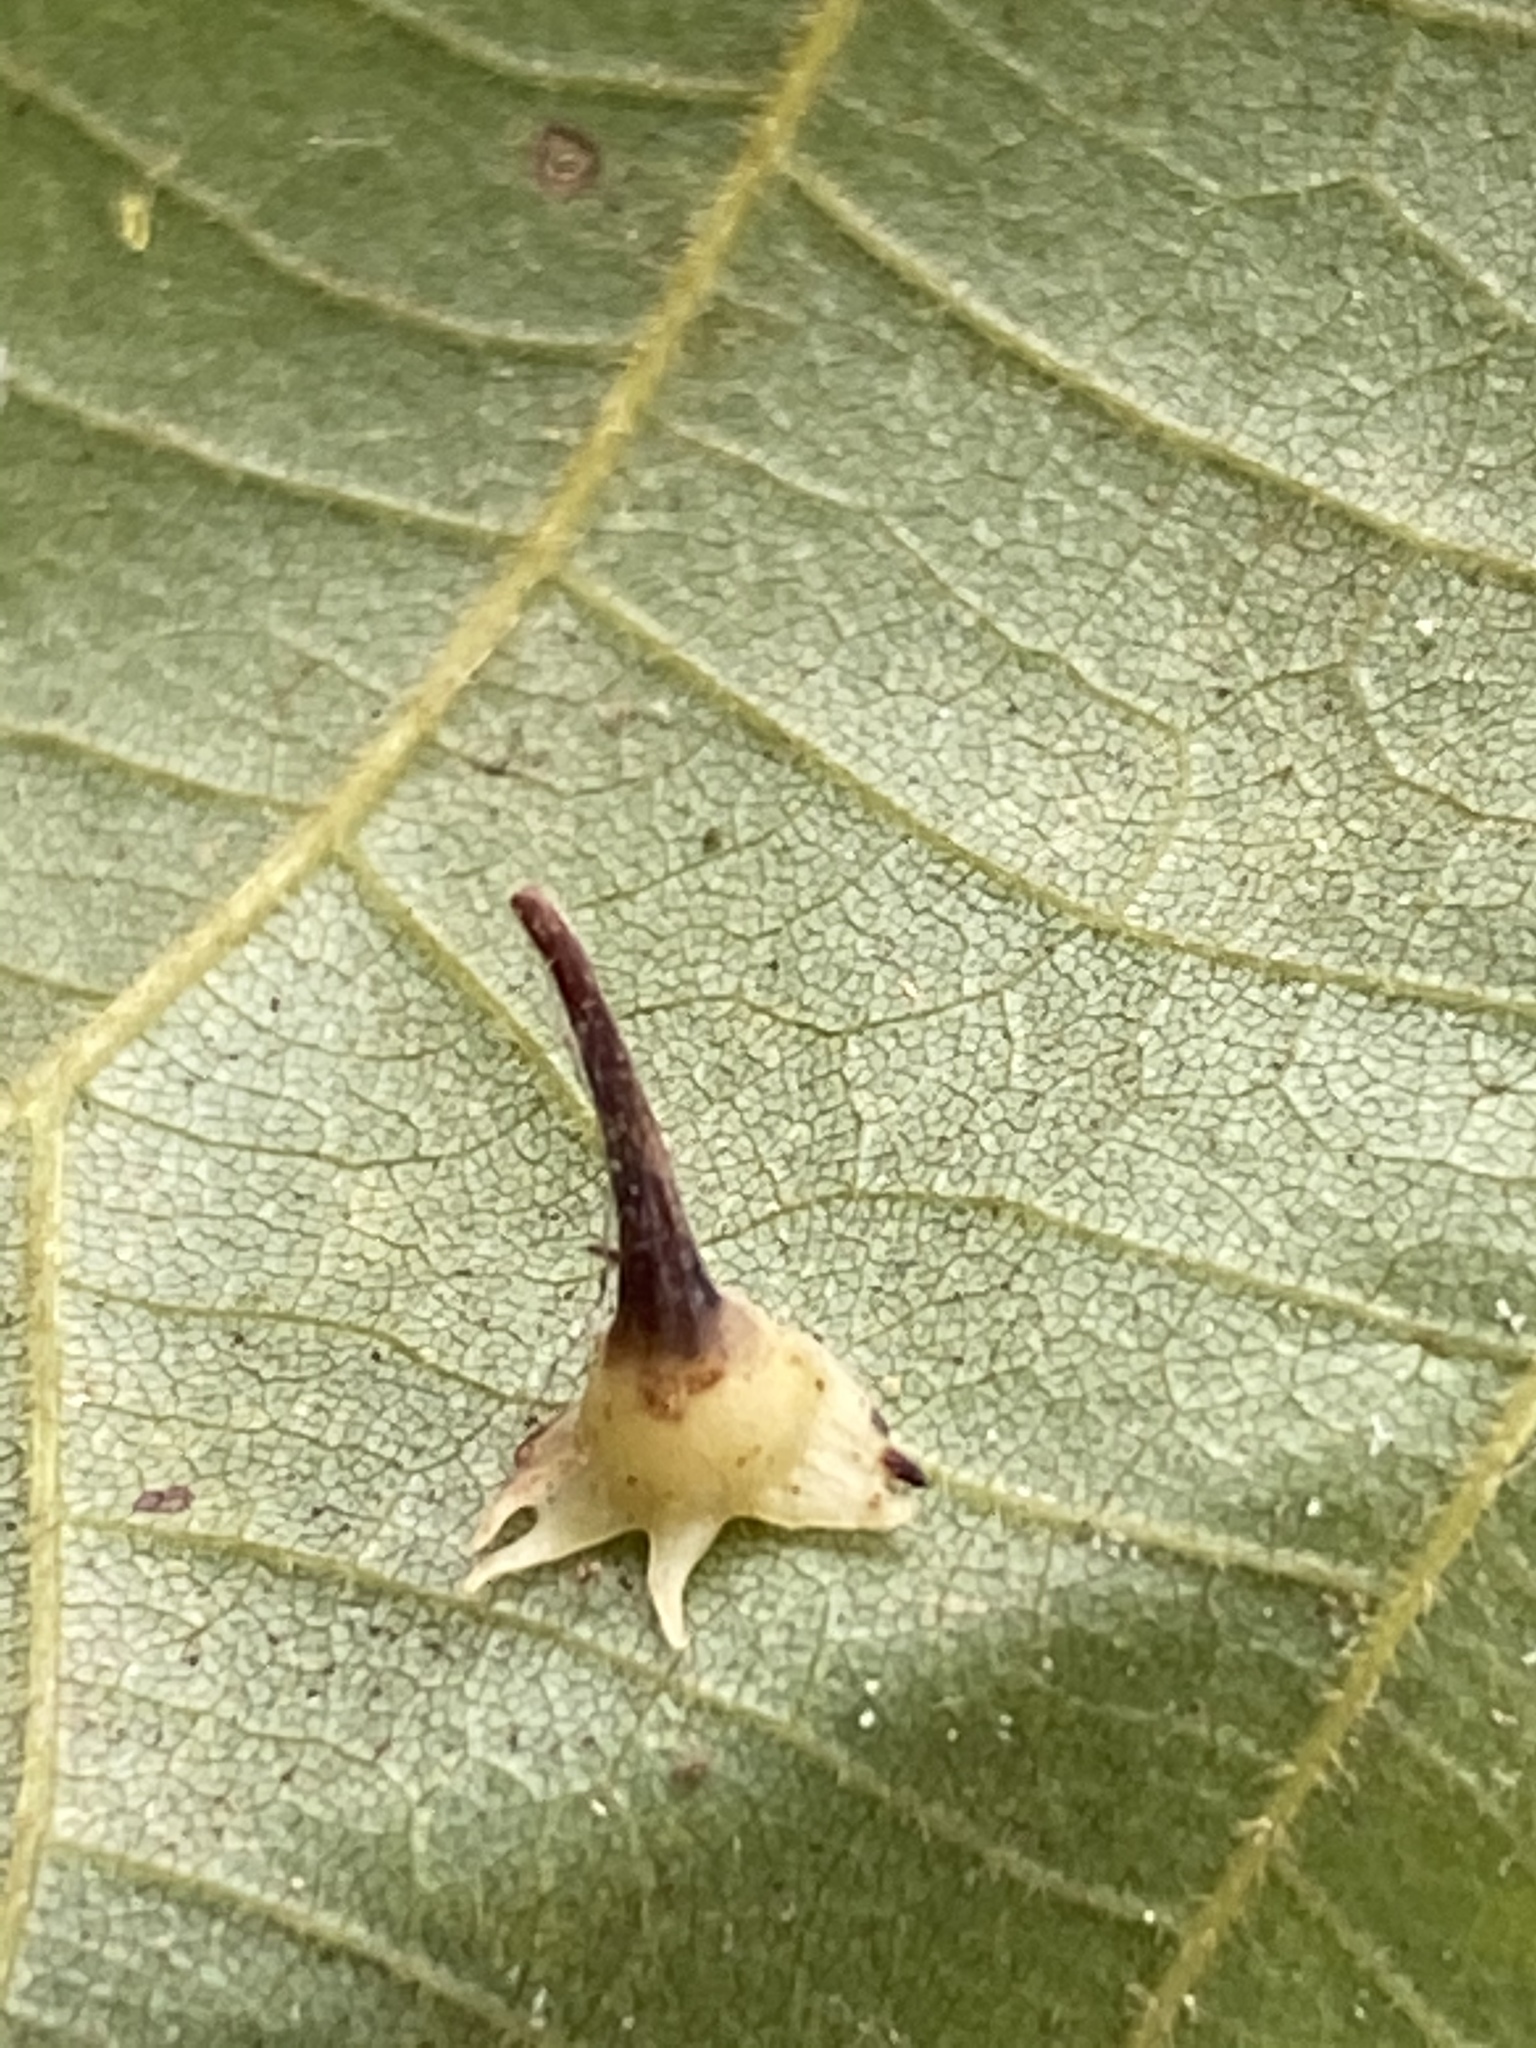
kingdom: Animalia
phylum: Arthropoda
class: Insecta
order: Diptera
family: Cecidomyiidae
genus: Caryomyia
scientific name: Caryomyia stellata
